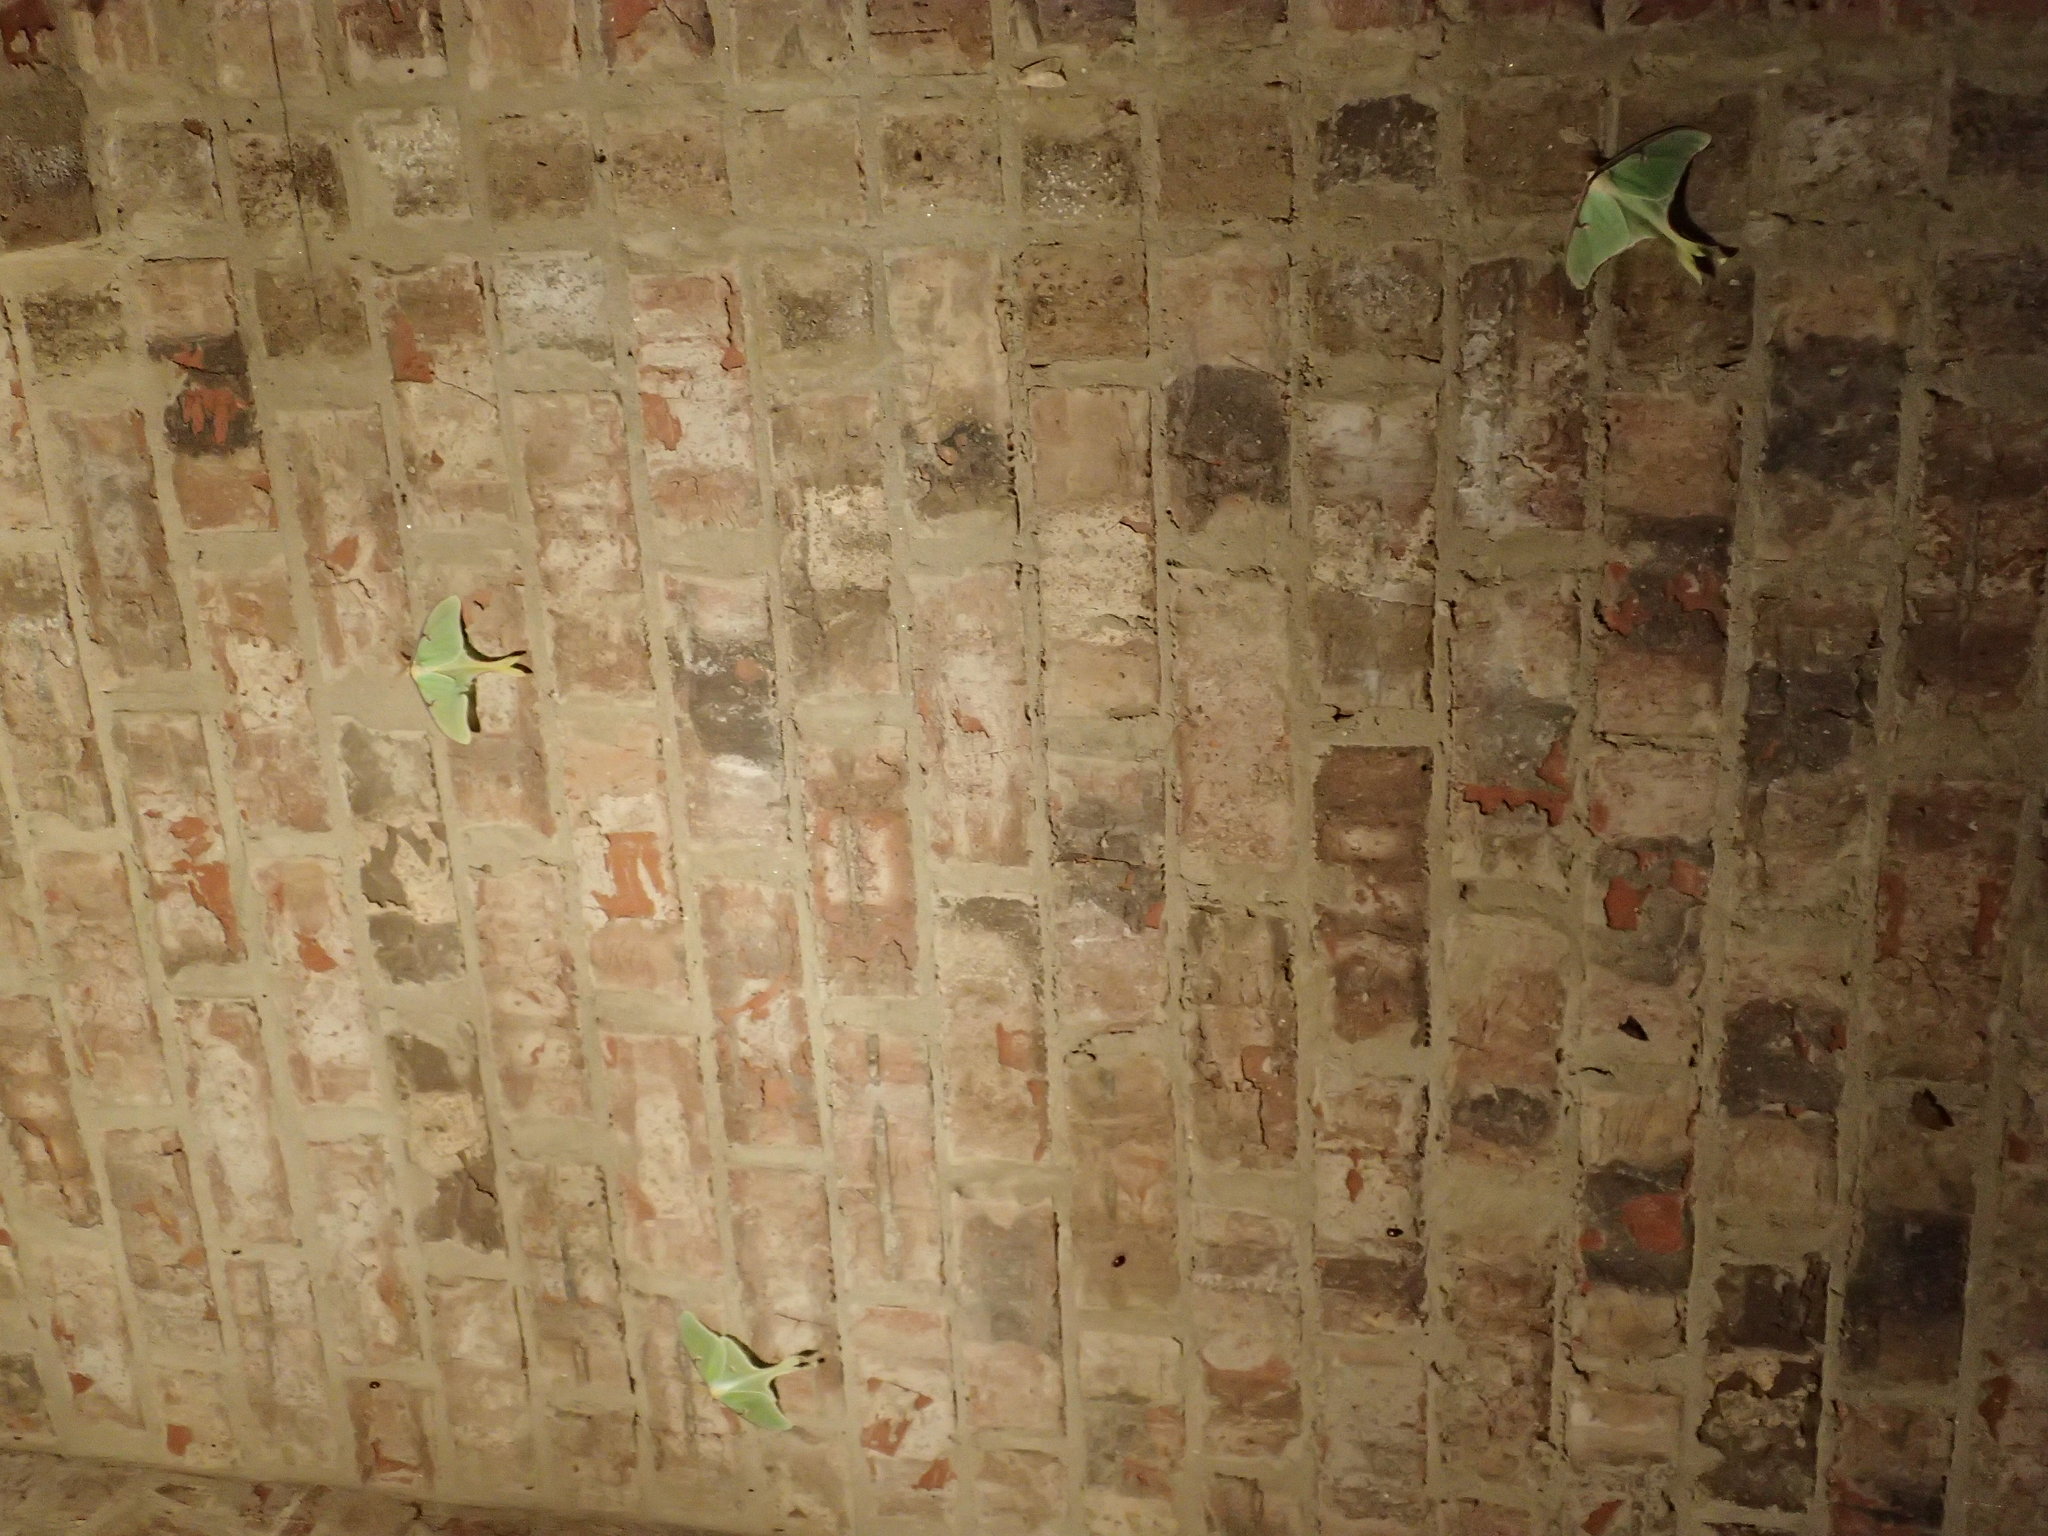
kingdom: Animalia
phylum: Arthropoda
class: Insecta
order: Lepidoptera
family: Saturniidae
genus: Actias
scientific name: Actias luna
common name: Luna moth
